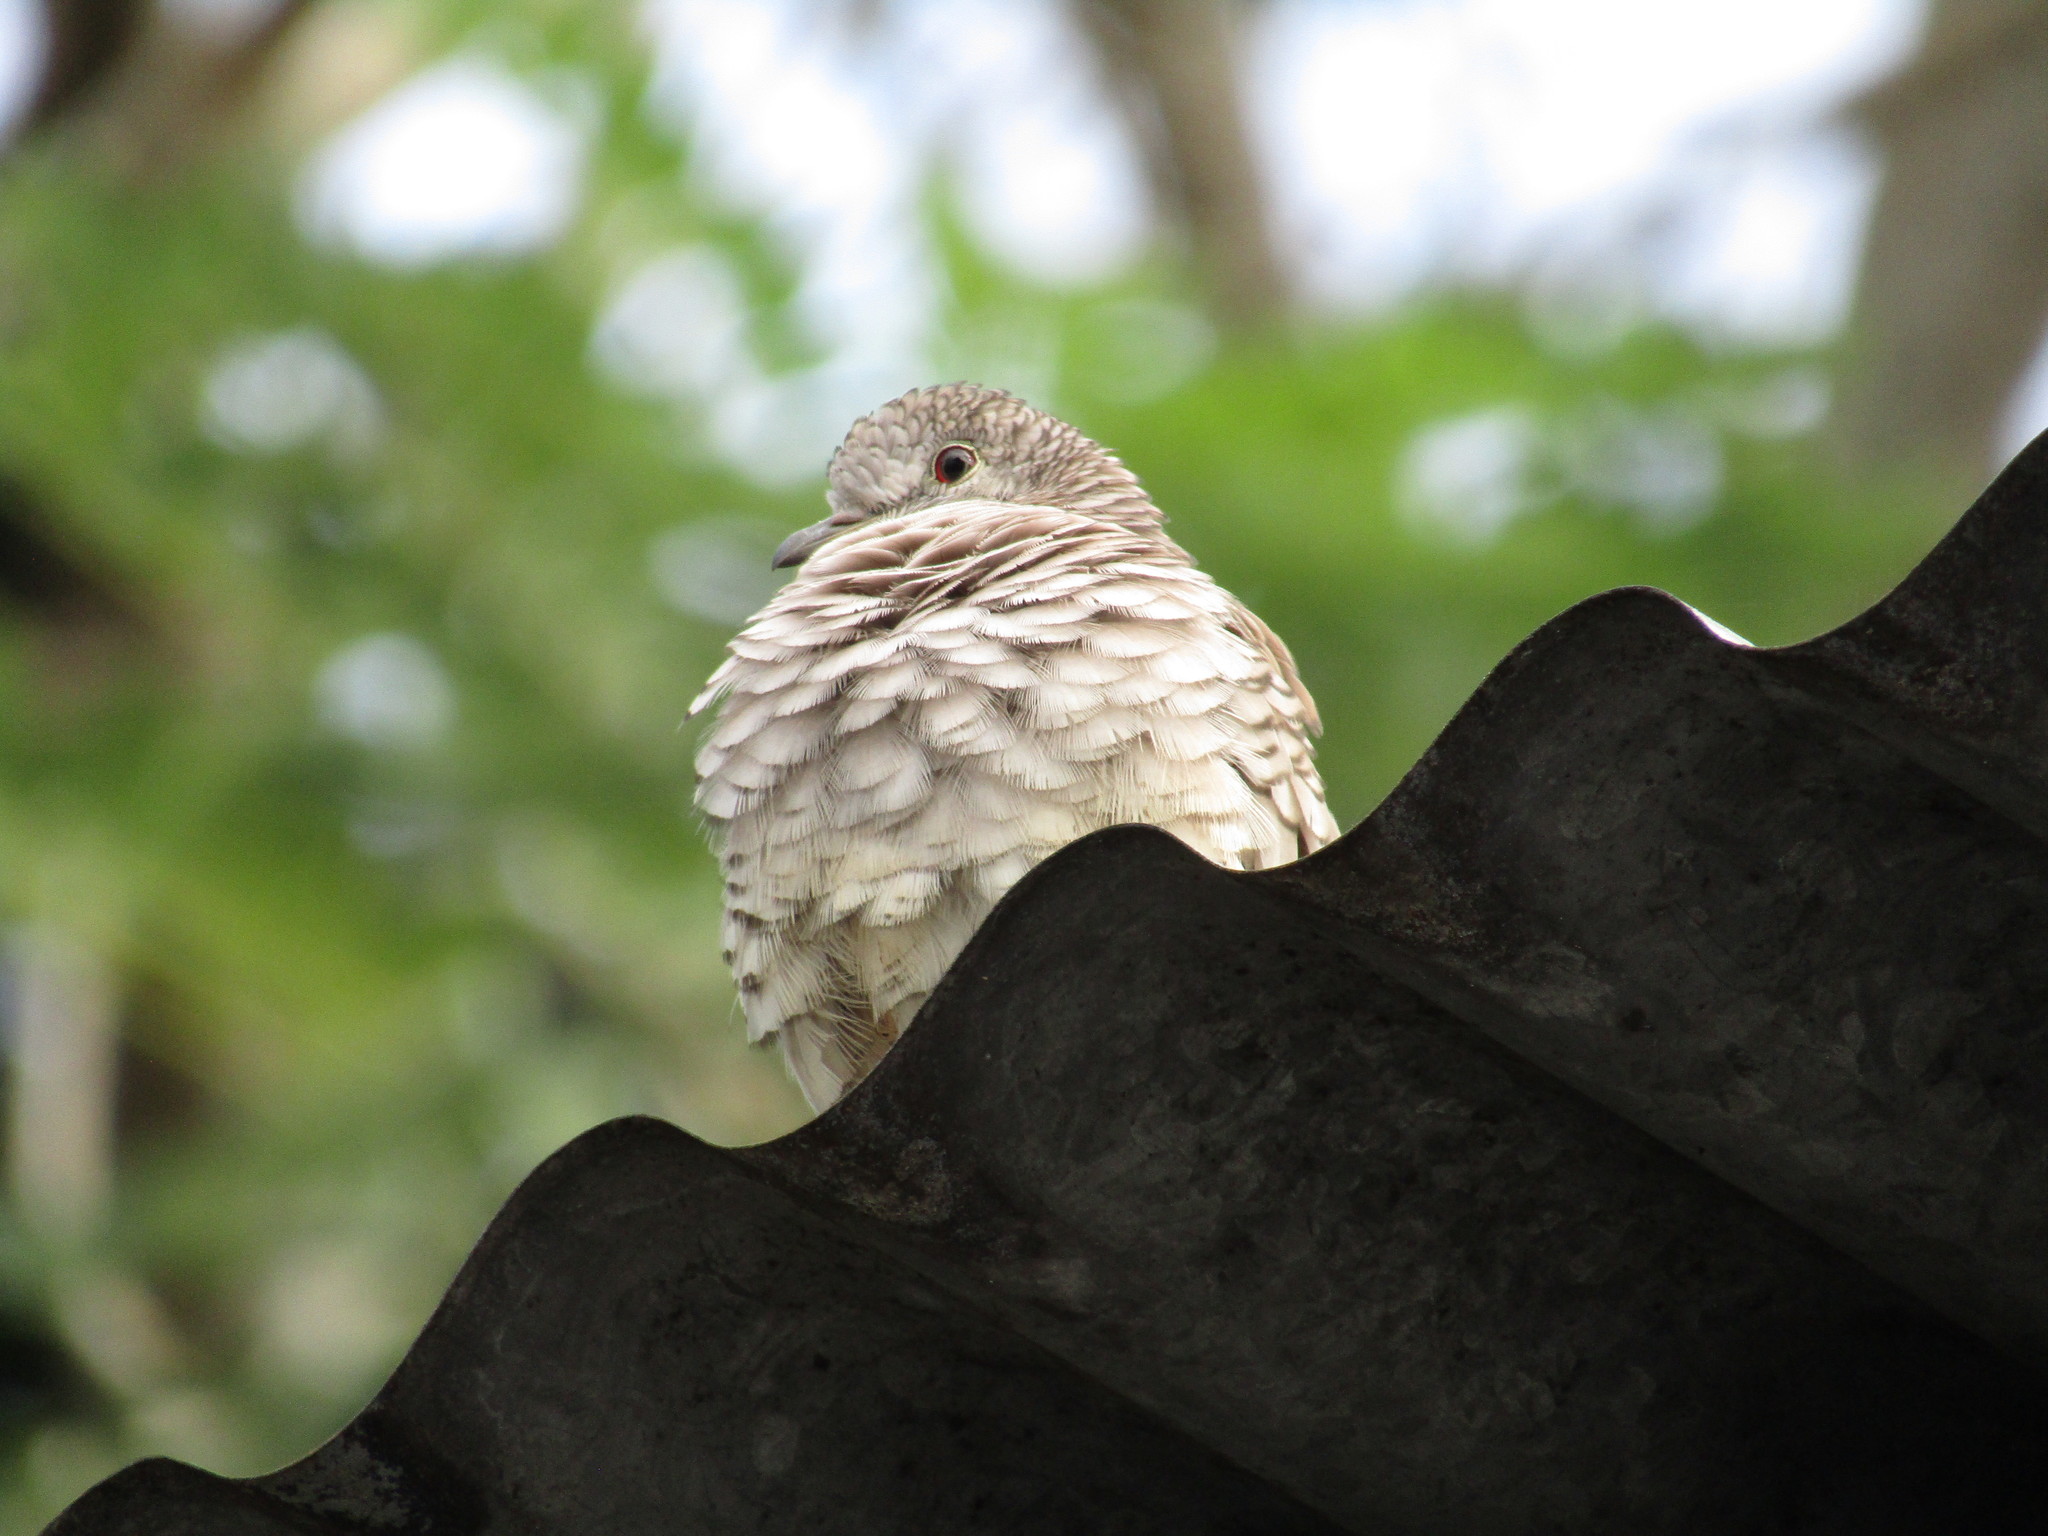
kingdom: Animalia
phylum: Chordata
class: Aves
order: Columbiformes
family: Columbidae
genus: Columbina
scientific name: Columbina inca
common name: Inca dove
